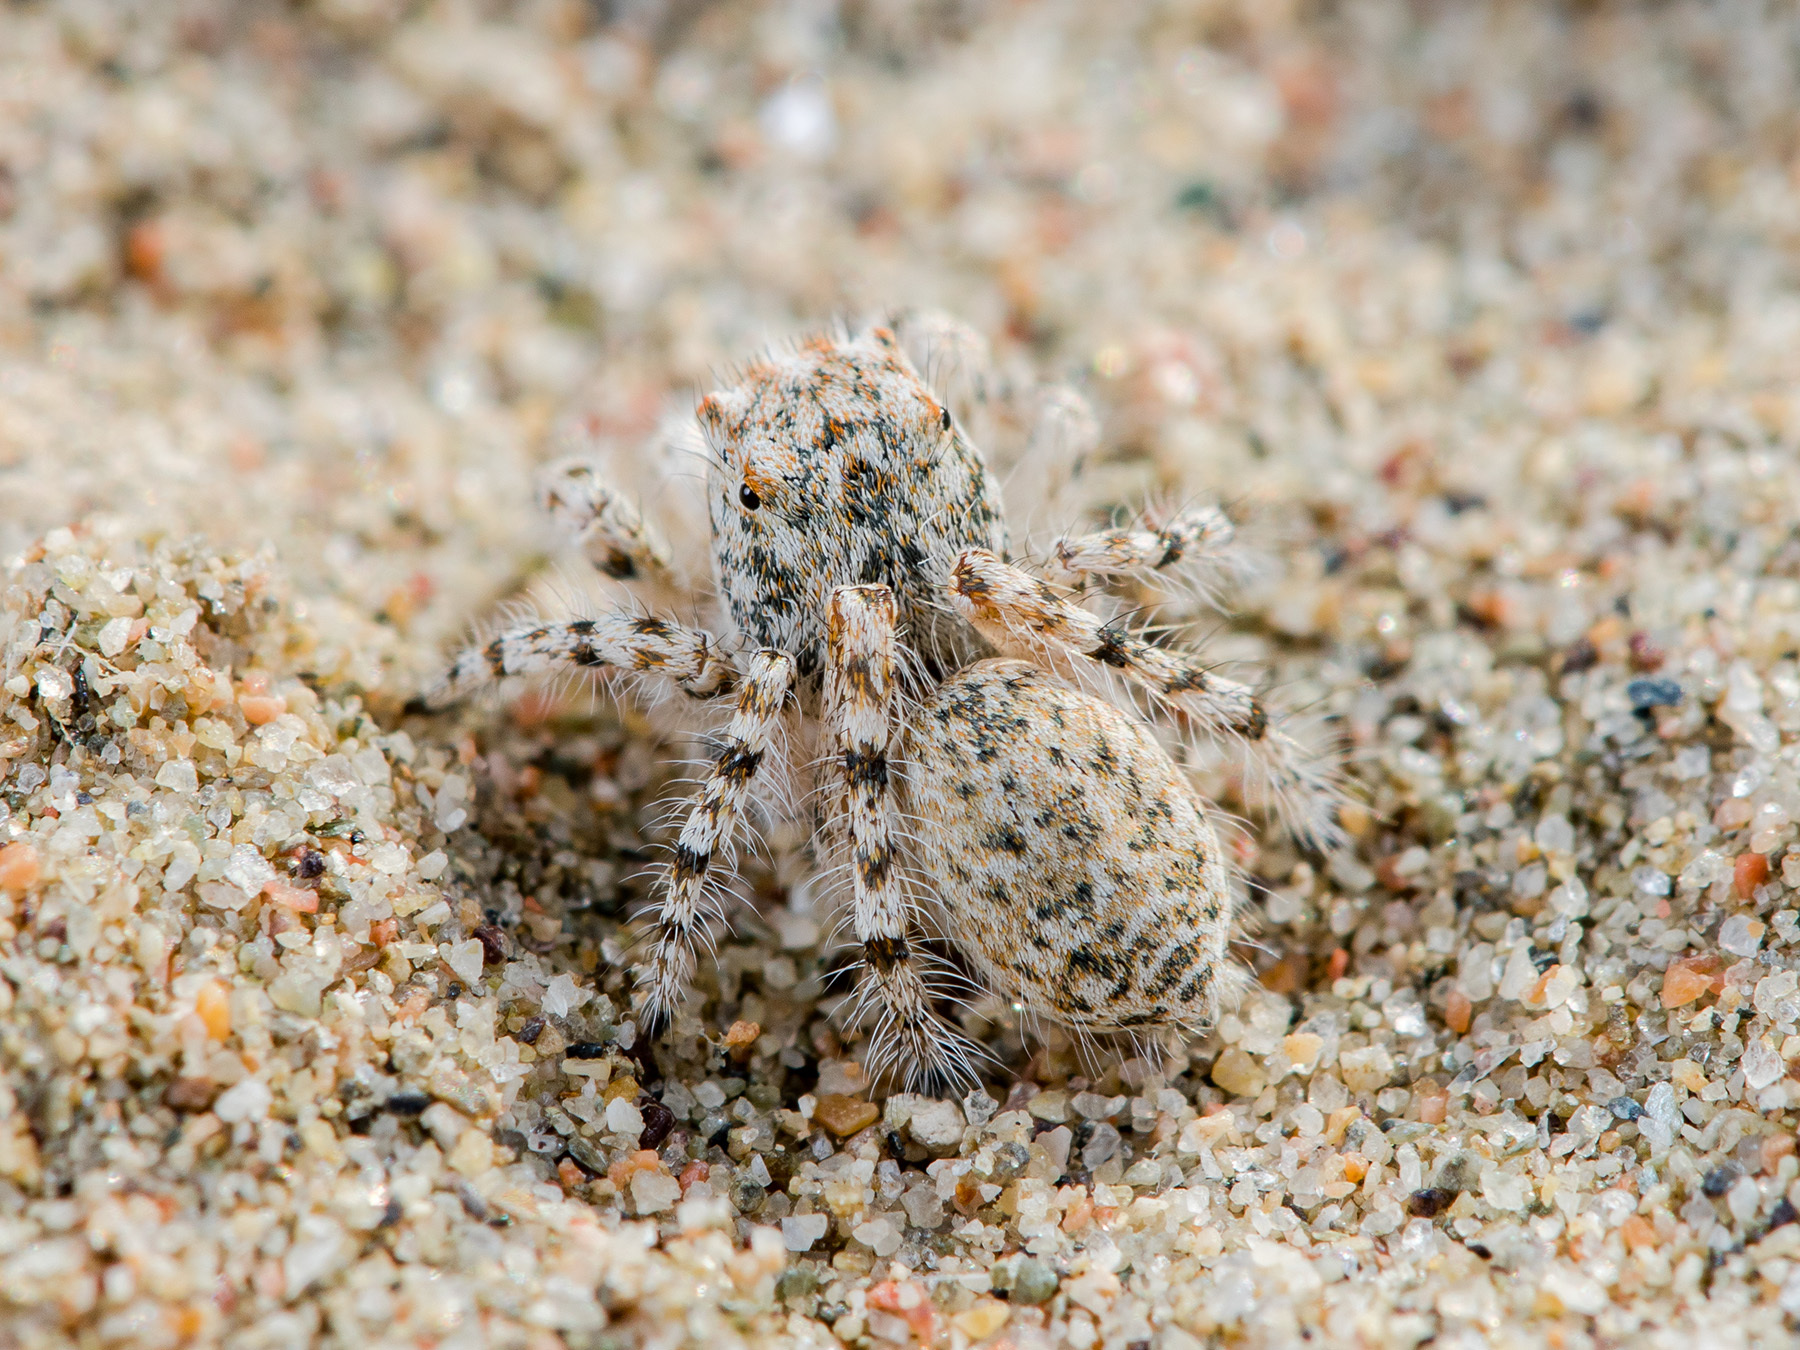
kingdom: Animalia
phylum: Arthropoda
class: Arachnida
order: Araneae
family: Salticidae
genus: Yllenus
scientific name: Yllenus uiguricus
